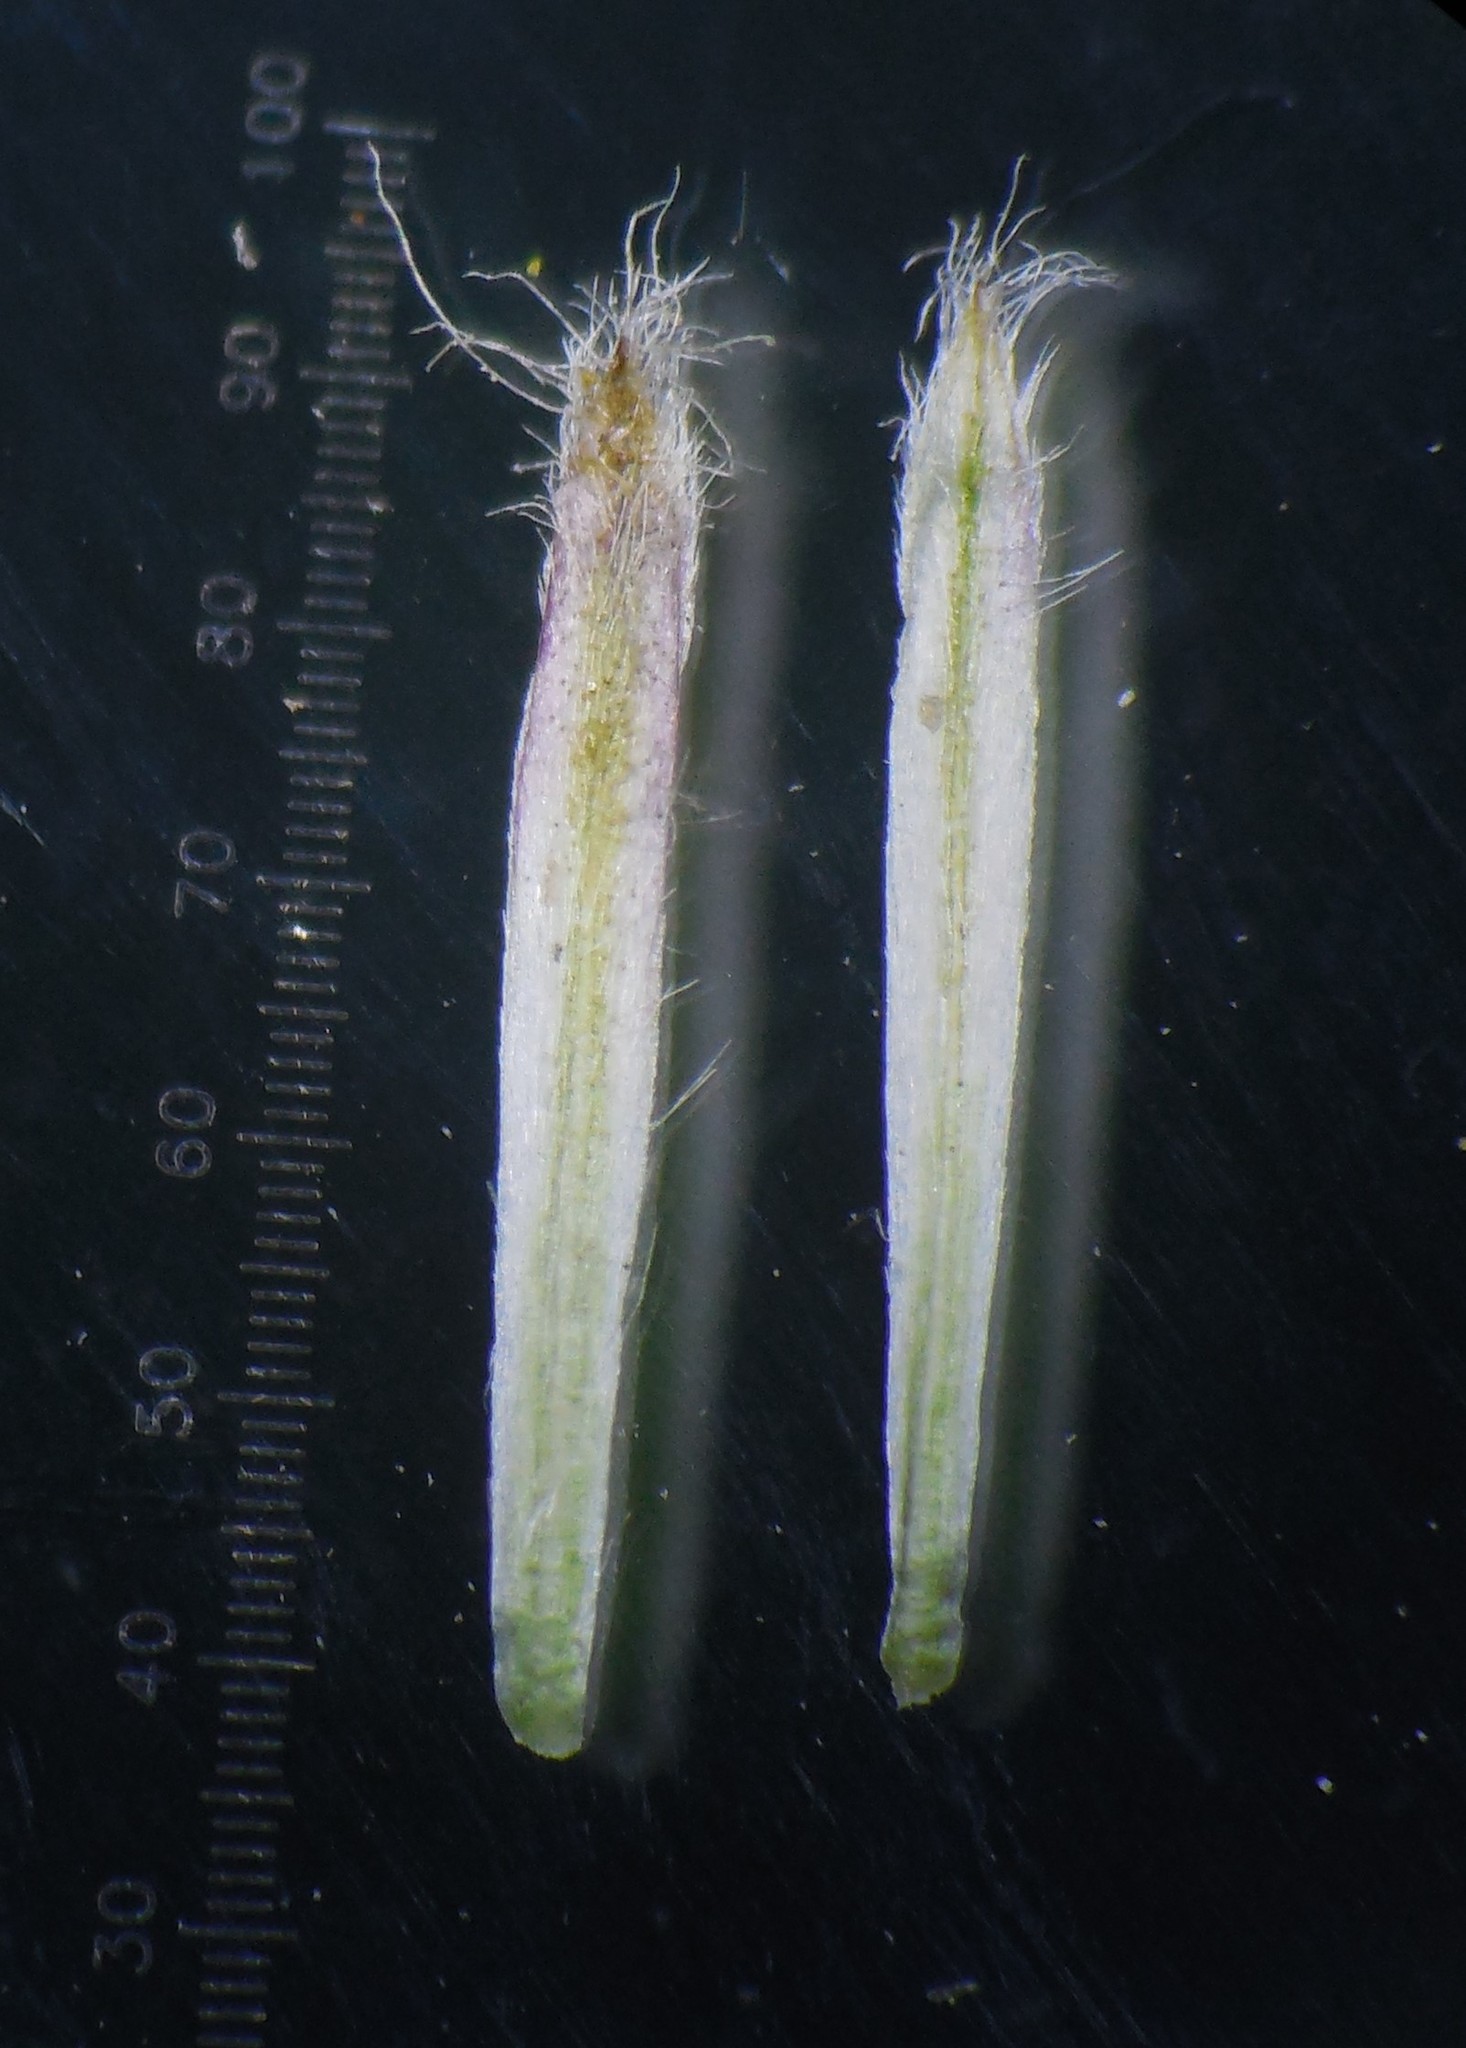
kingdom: Plantae
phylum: Tracheophyta
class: Magnoliopsida
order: Asterales
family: Asteraceae
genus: Blumea
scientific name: Blumea belangeriana
